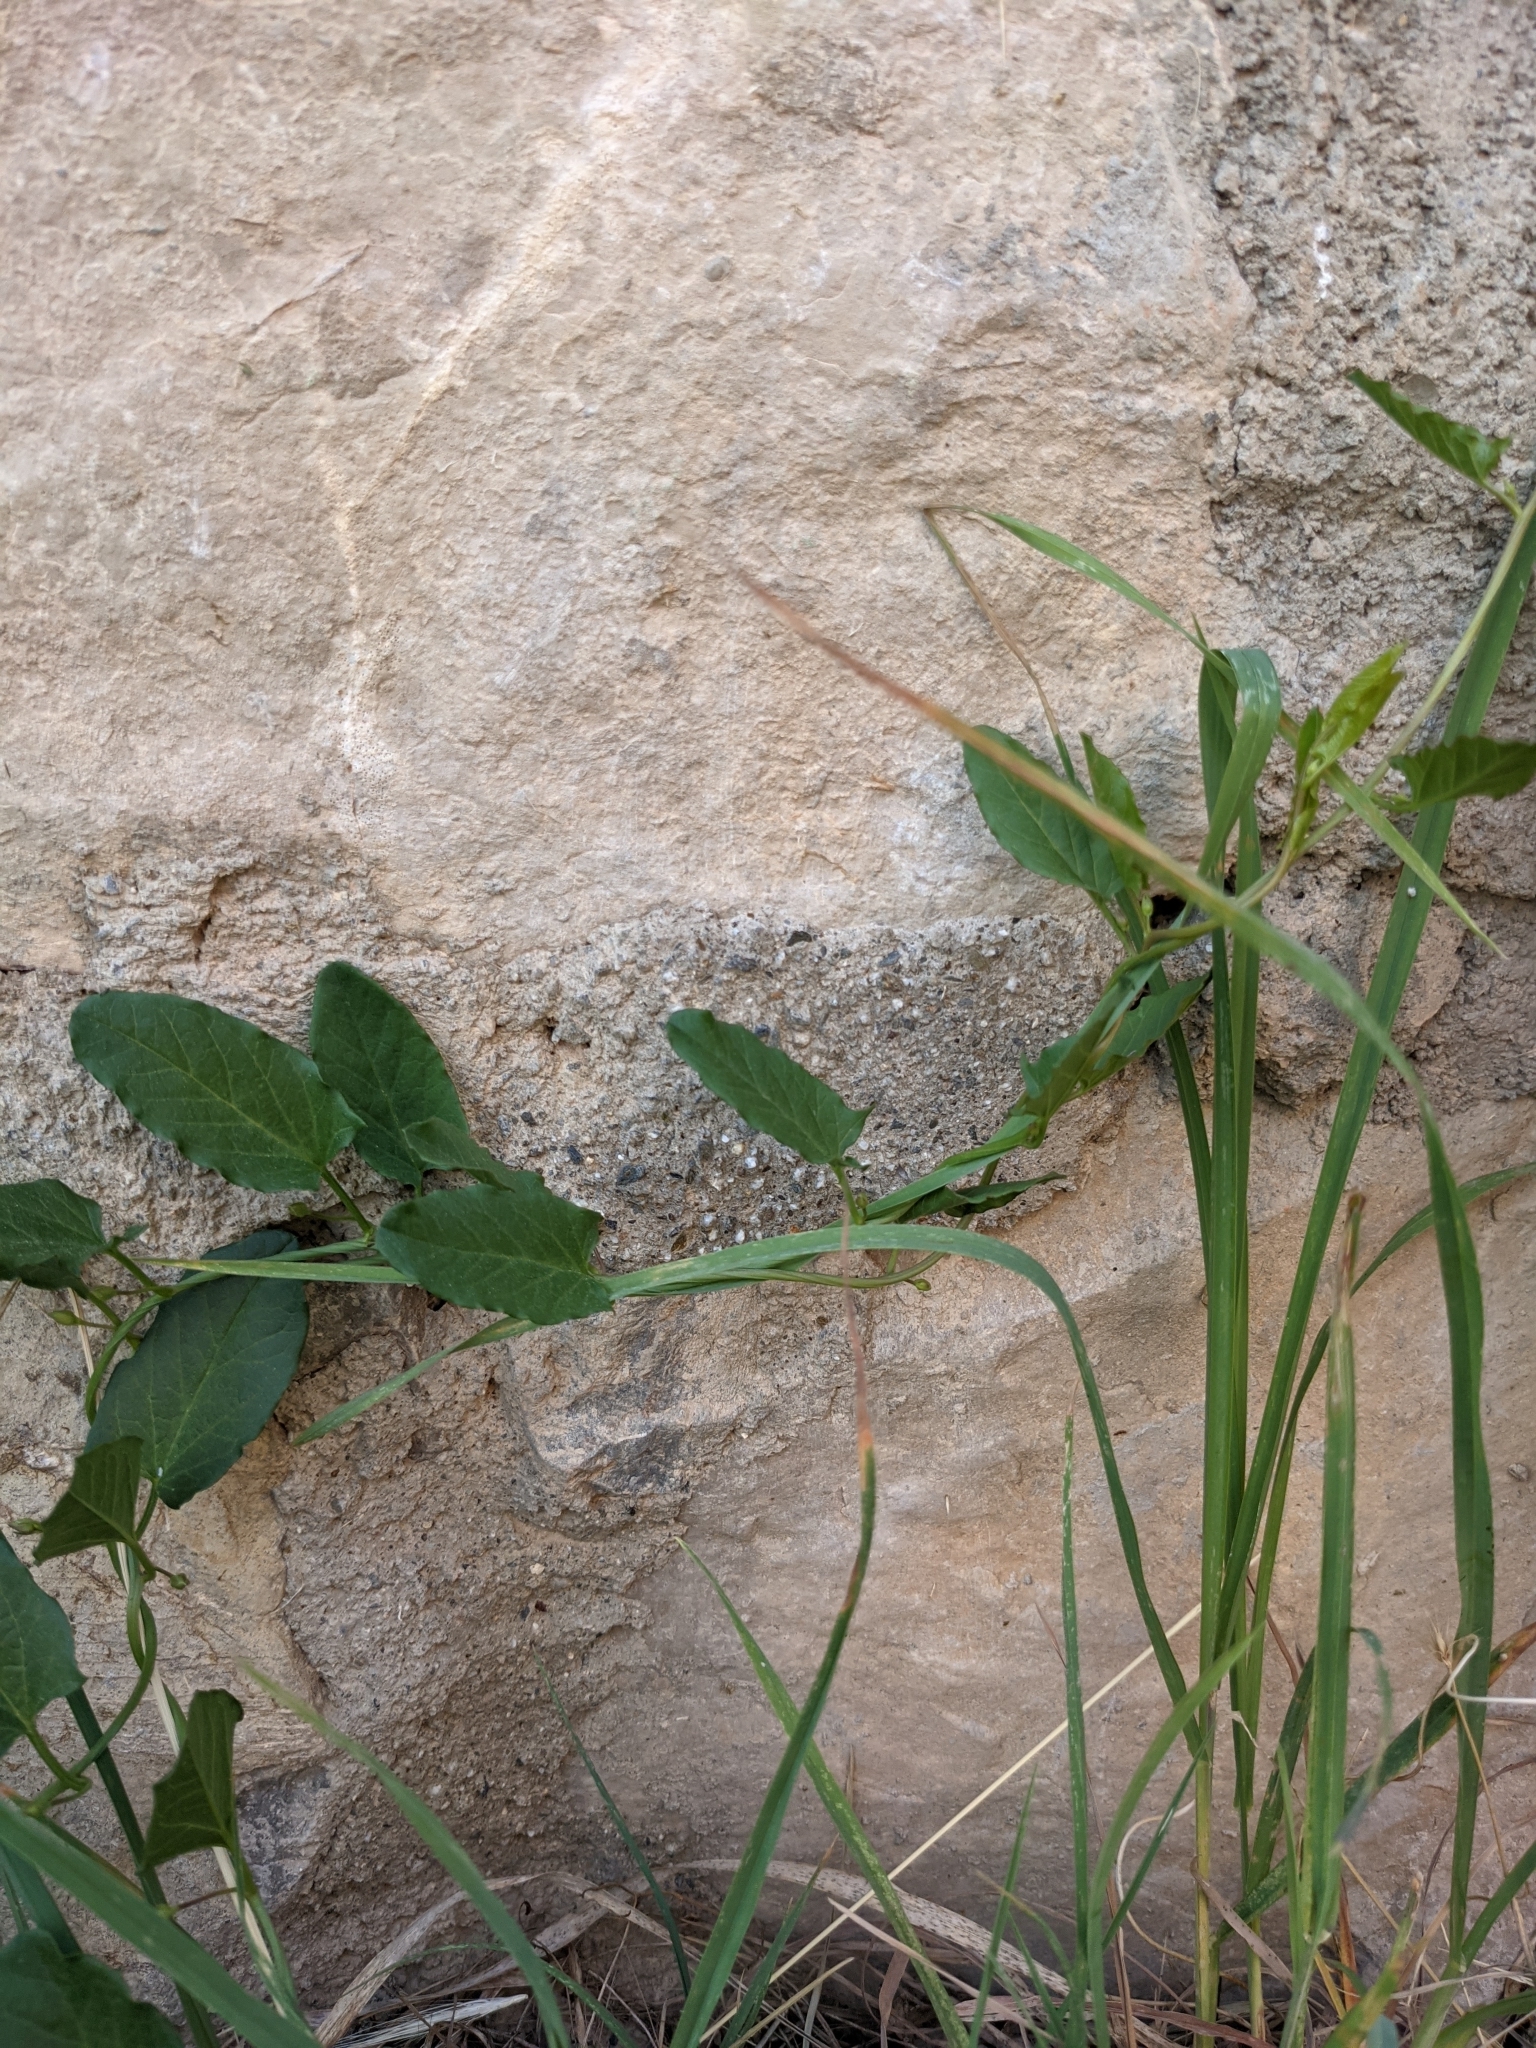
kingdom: Plantae
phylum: Tracheophyta
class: Magnoliopsida
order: Solanales
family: Convolvulaceae
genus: Convolvulus
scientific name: Convolvulus arvensis
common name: Field bindweed
